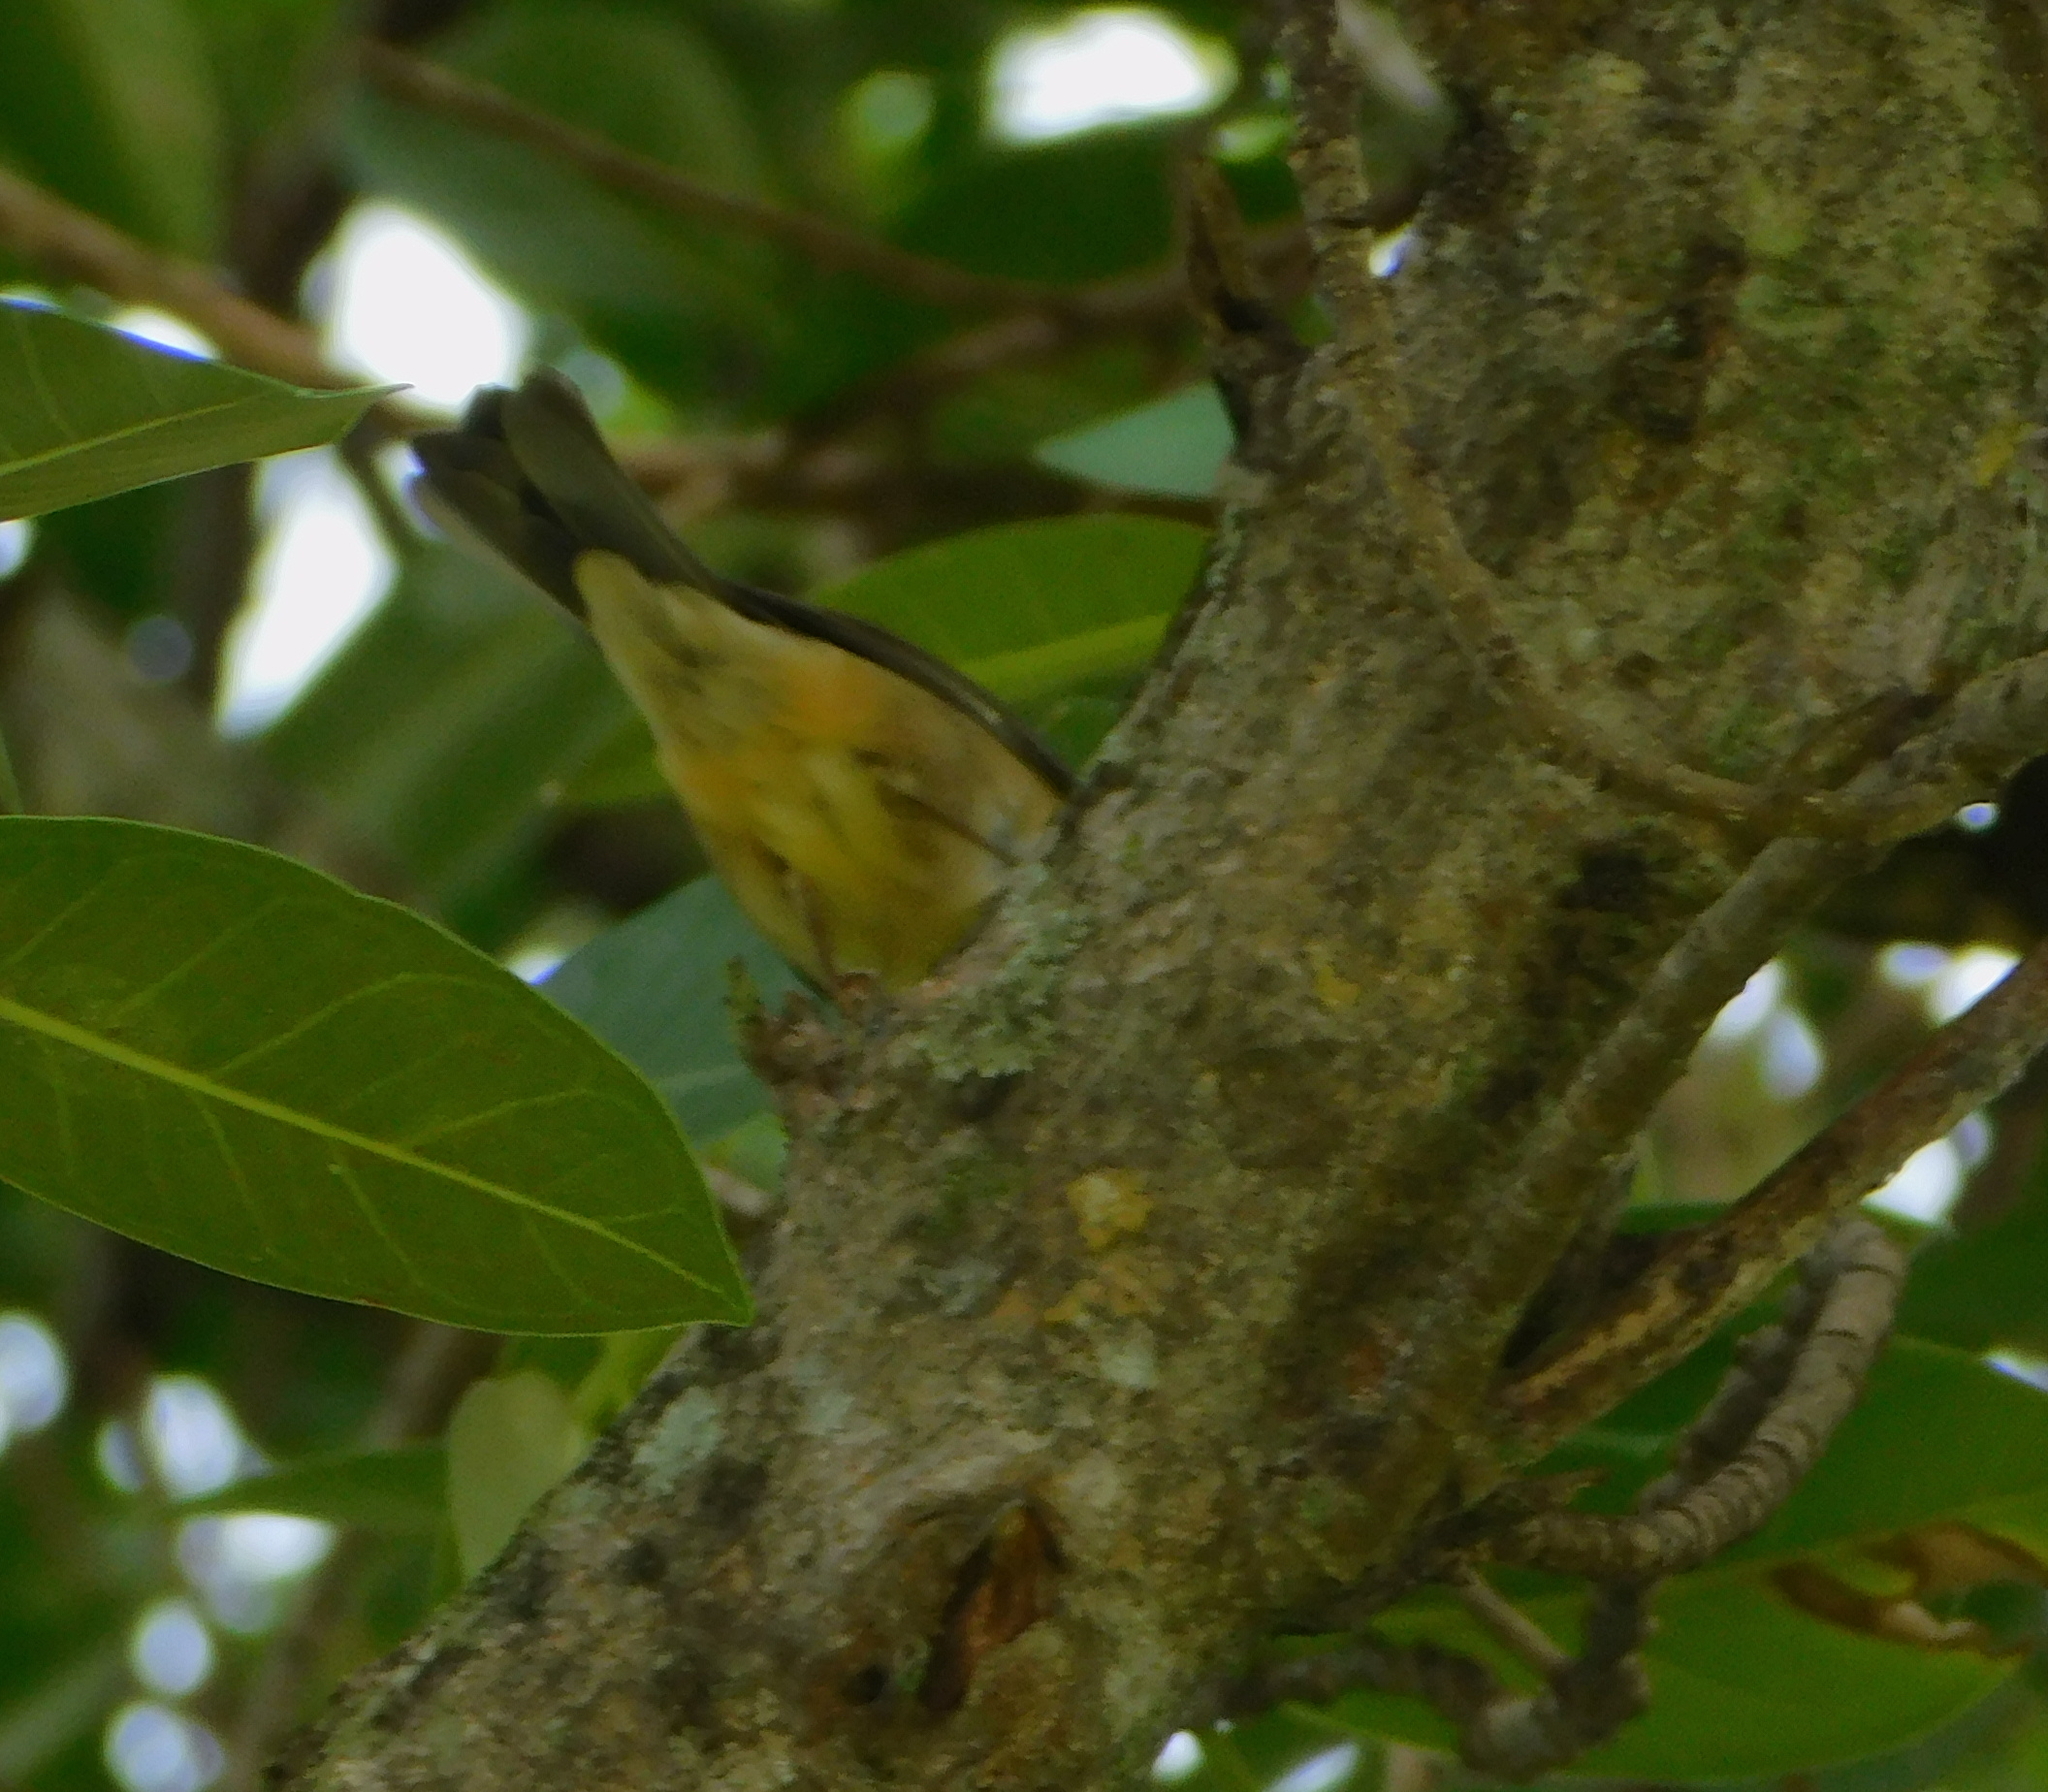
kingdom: Animalia
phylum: Chordata
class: Aves
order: Passeriformes
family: Parulidae
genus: Setophaga
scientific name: Setophaga caerulescens
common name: Black-throated blue warbler
